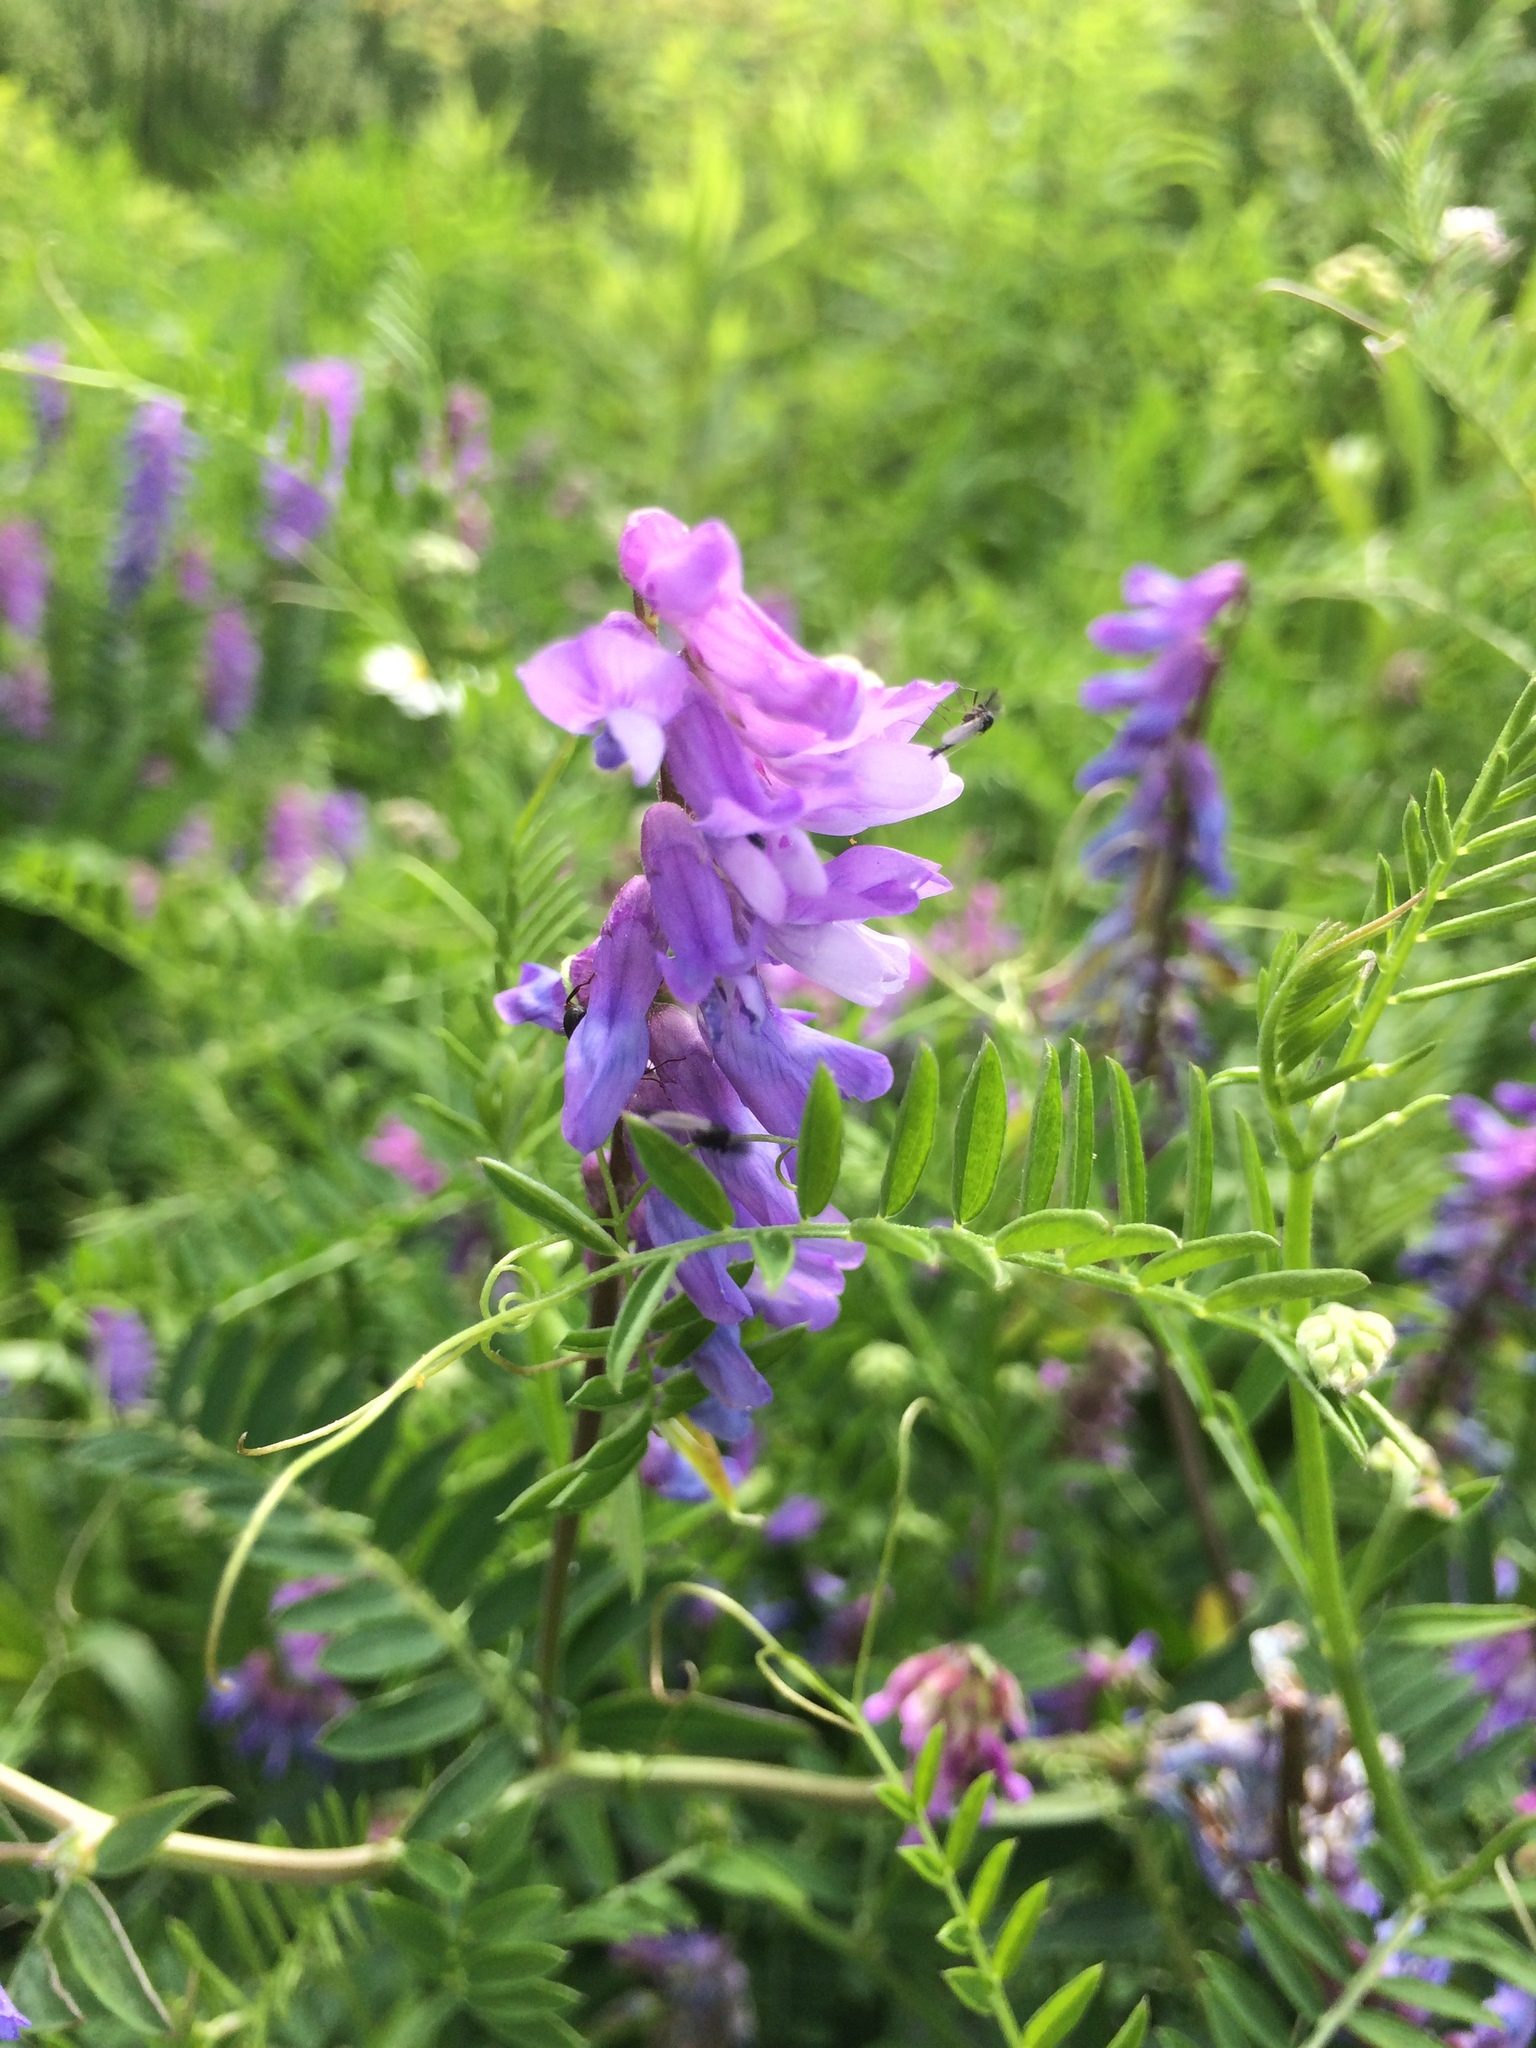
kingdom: Plantae
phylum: Tracheophyta
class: Magnoliopsida
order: Fabales
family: Fabaceae
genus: Vicia
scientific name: Vicia cracca
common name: Bird vetch
